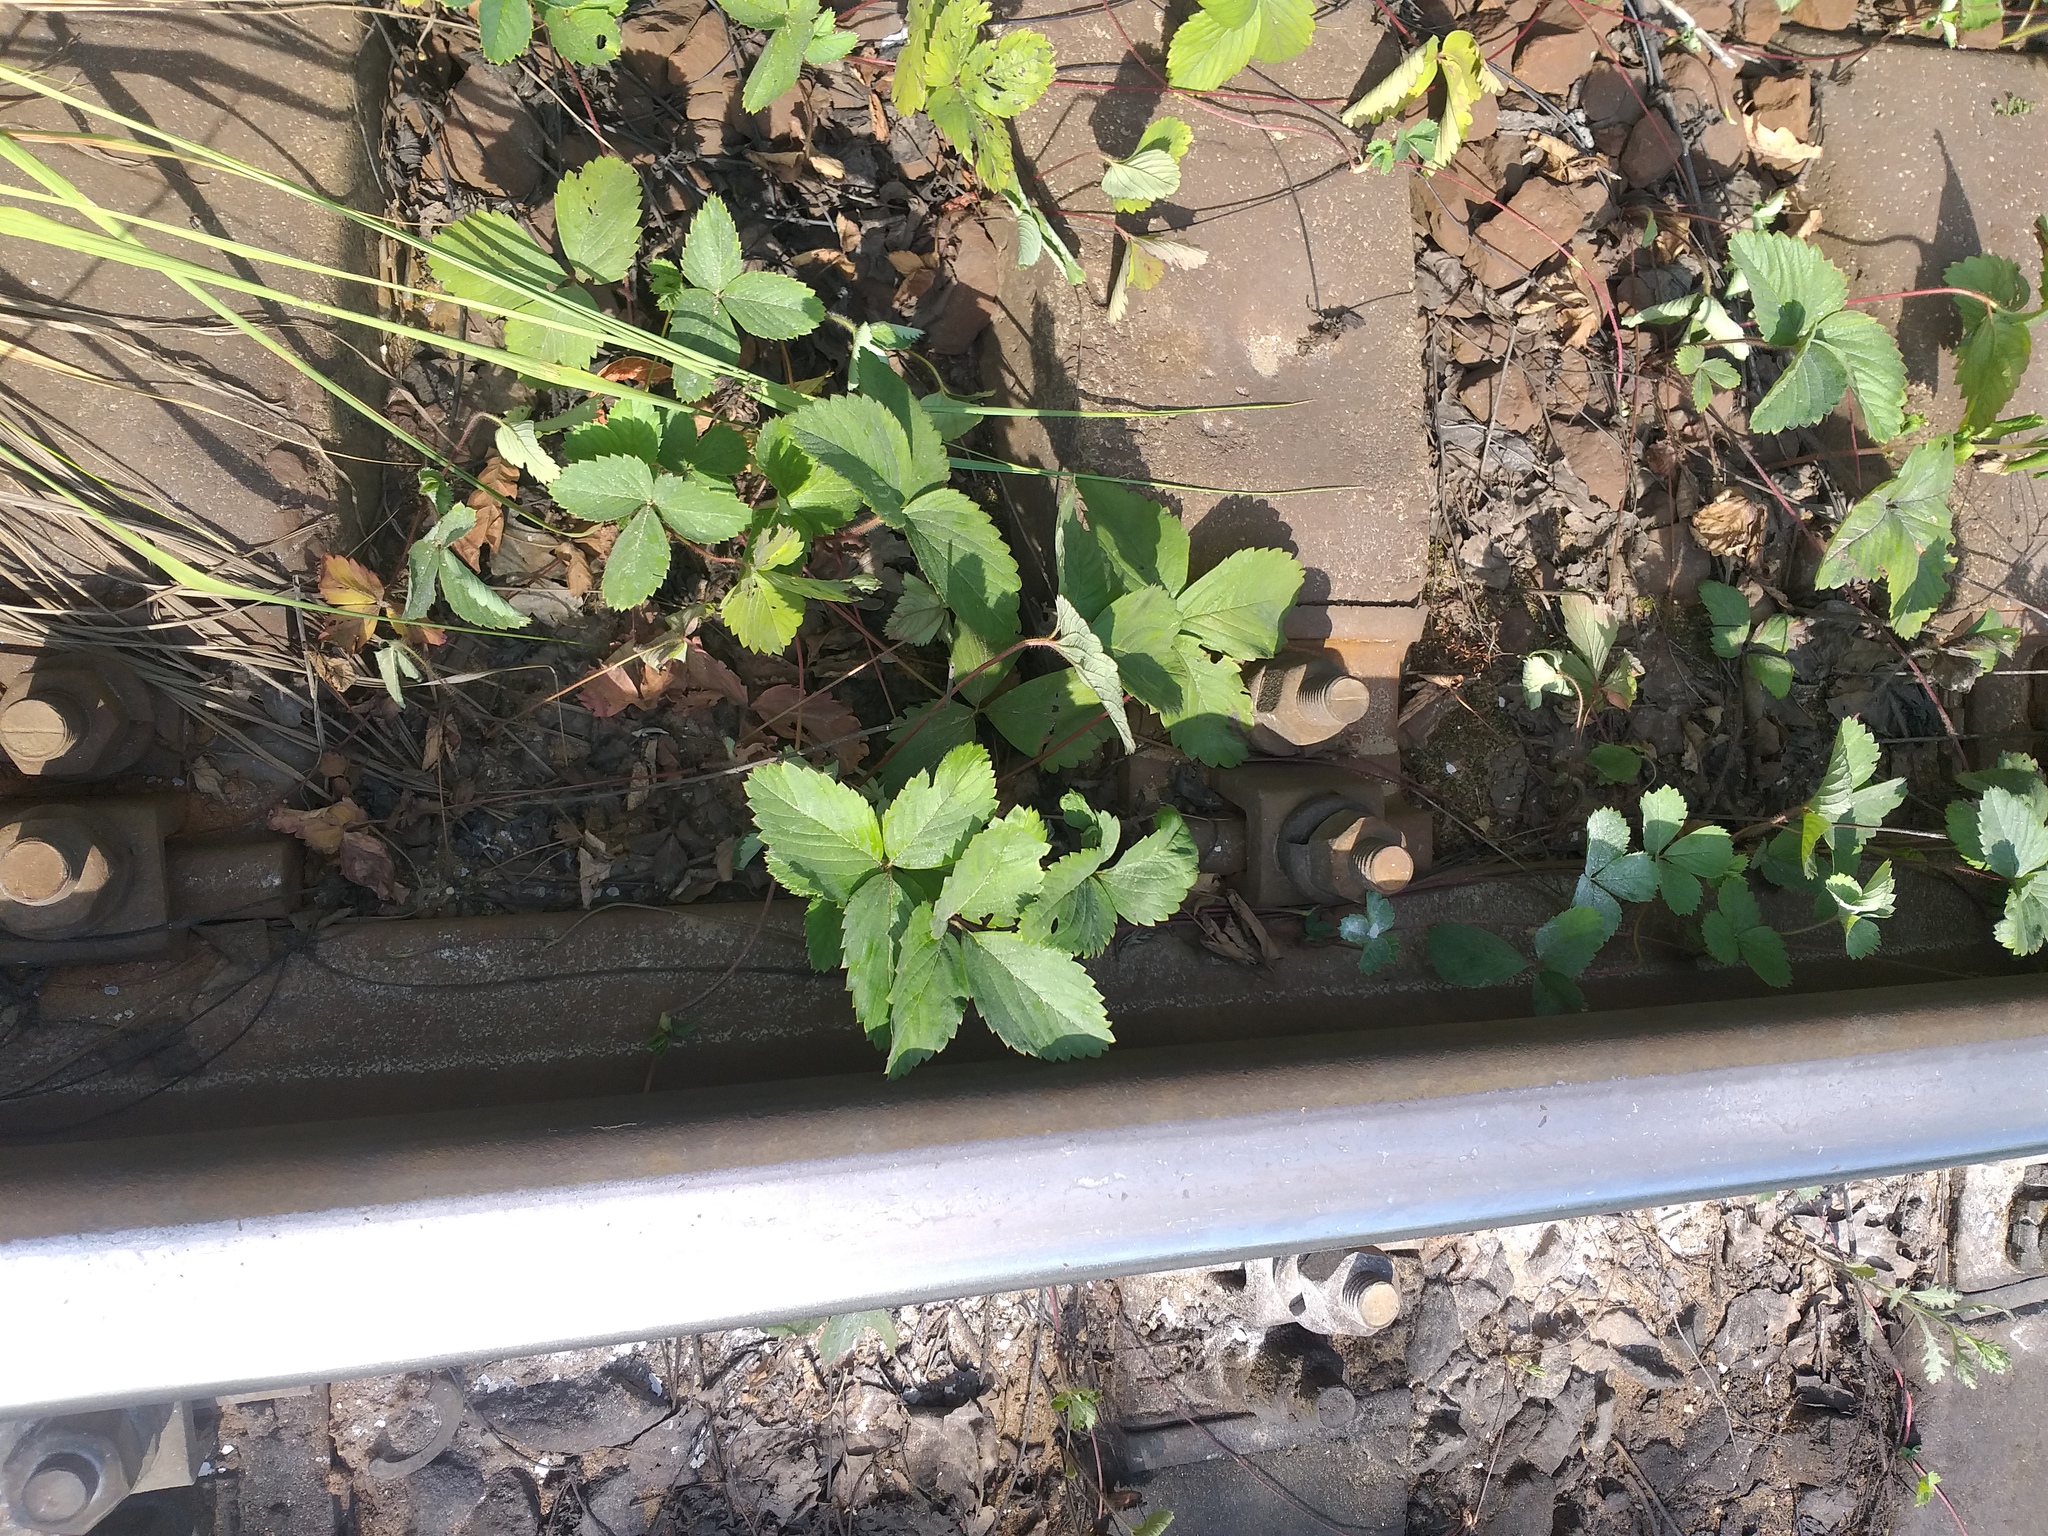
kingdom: Plantae
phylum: Tracheophyta
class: Magnoliopsida
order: Rosales
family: Rosaceae
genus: Fragaria
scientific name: Fragaria ananassa
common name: Garden strawberry
